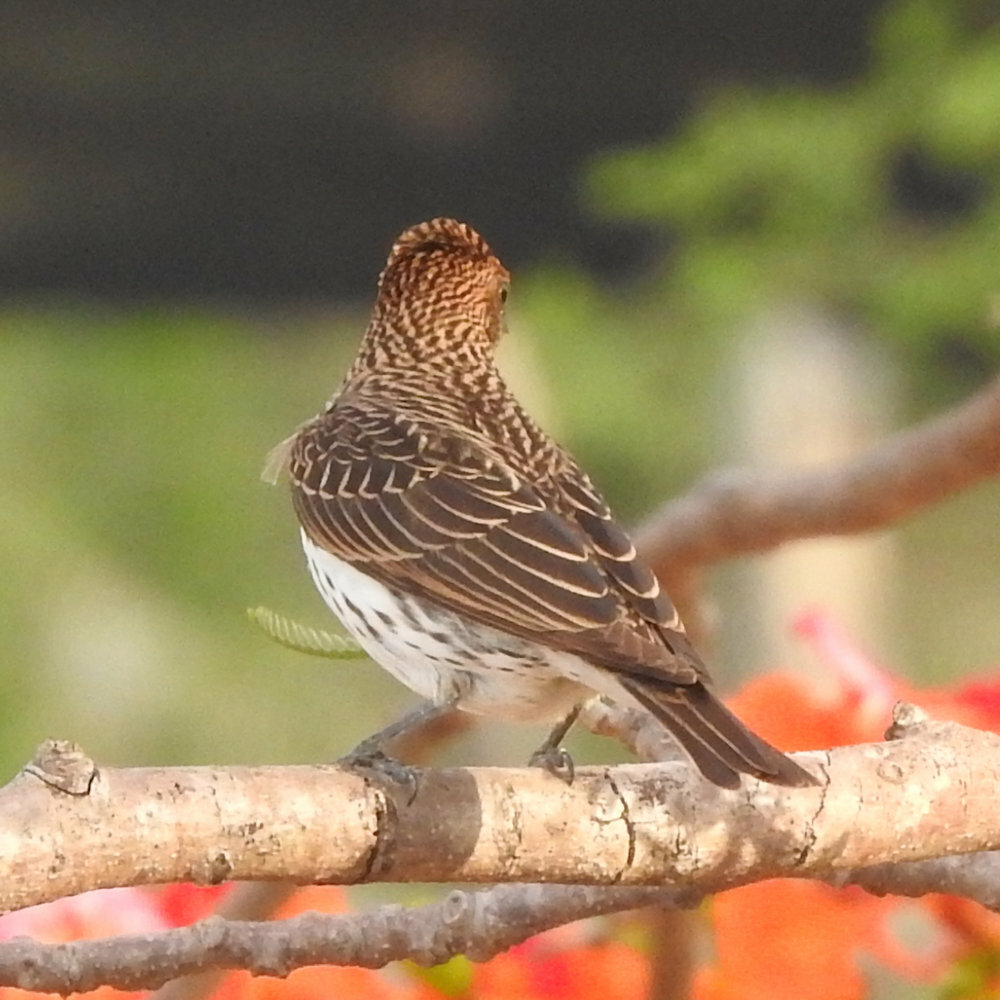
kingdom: Animalia
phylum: Chordata
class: Aves
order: Passeriformes
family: Sturnidae
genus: Cinnyricinclus
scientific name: Cinnyricinclus leucogaster
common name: Violet-backed starling
